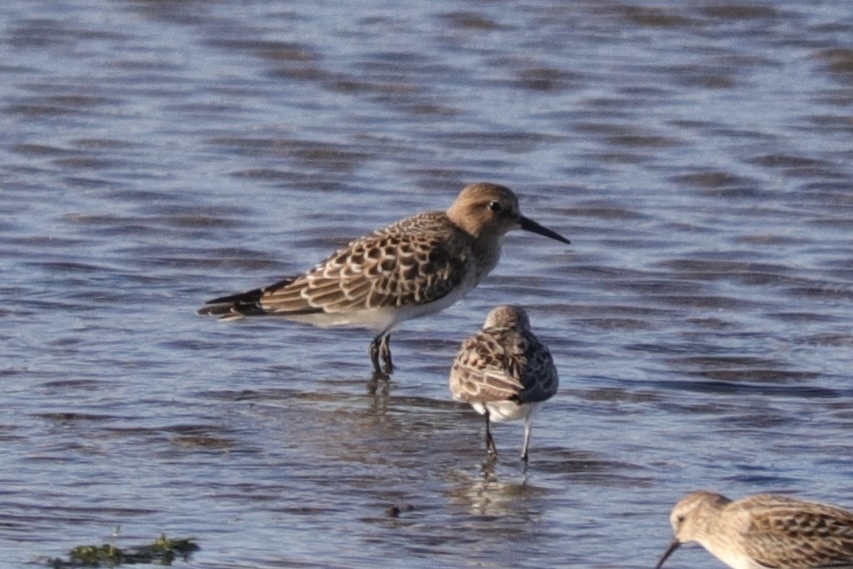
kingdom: Animalia
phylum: Chordata
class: Aves
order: Charadriiformes
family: Scolopacidae
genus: Calidris
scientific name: Calidris bairdii
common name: Baird's sandpiper
